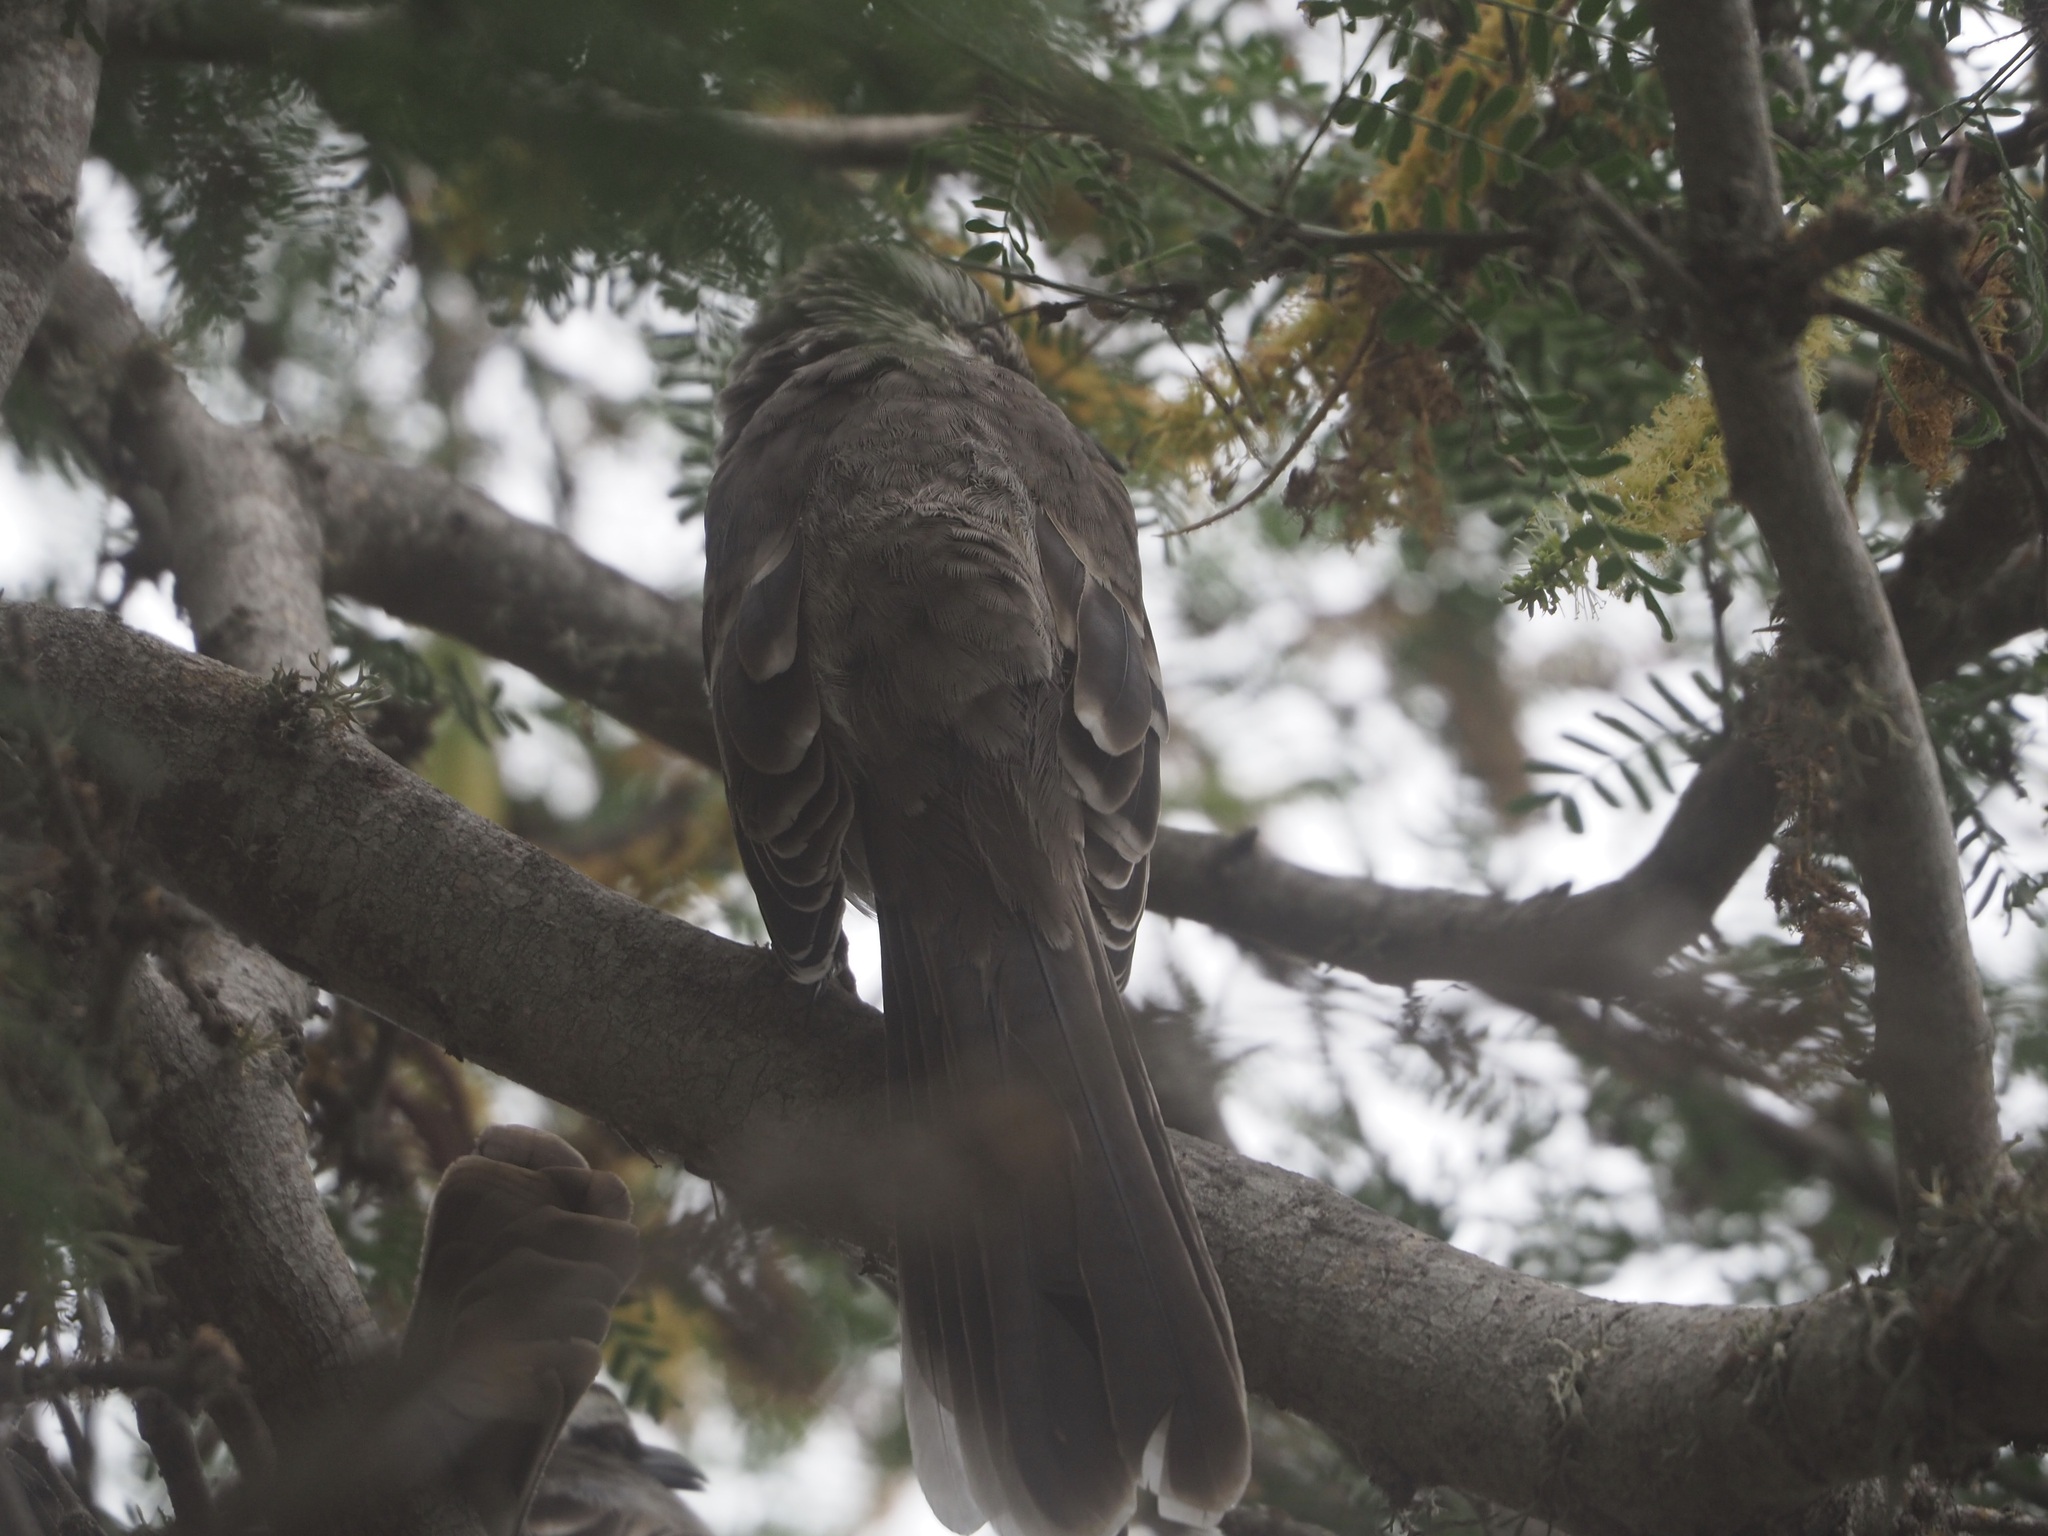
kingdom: Animalia
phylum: Chordata
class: Aves
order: Passeriformes
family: Mimidae
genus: Mimus
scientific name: Mimus longicaudatus
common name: Long-tailed mockingbird
